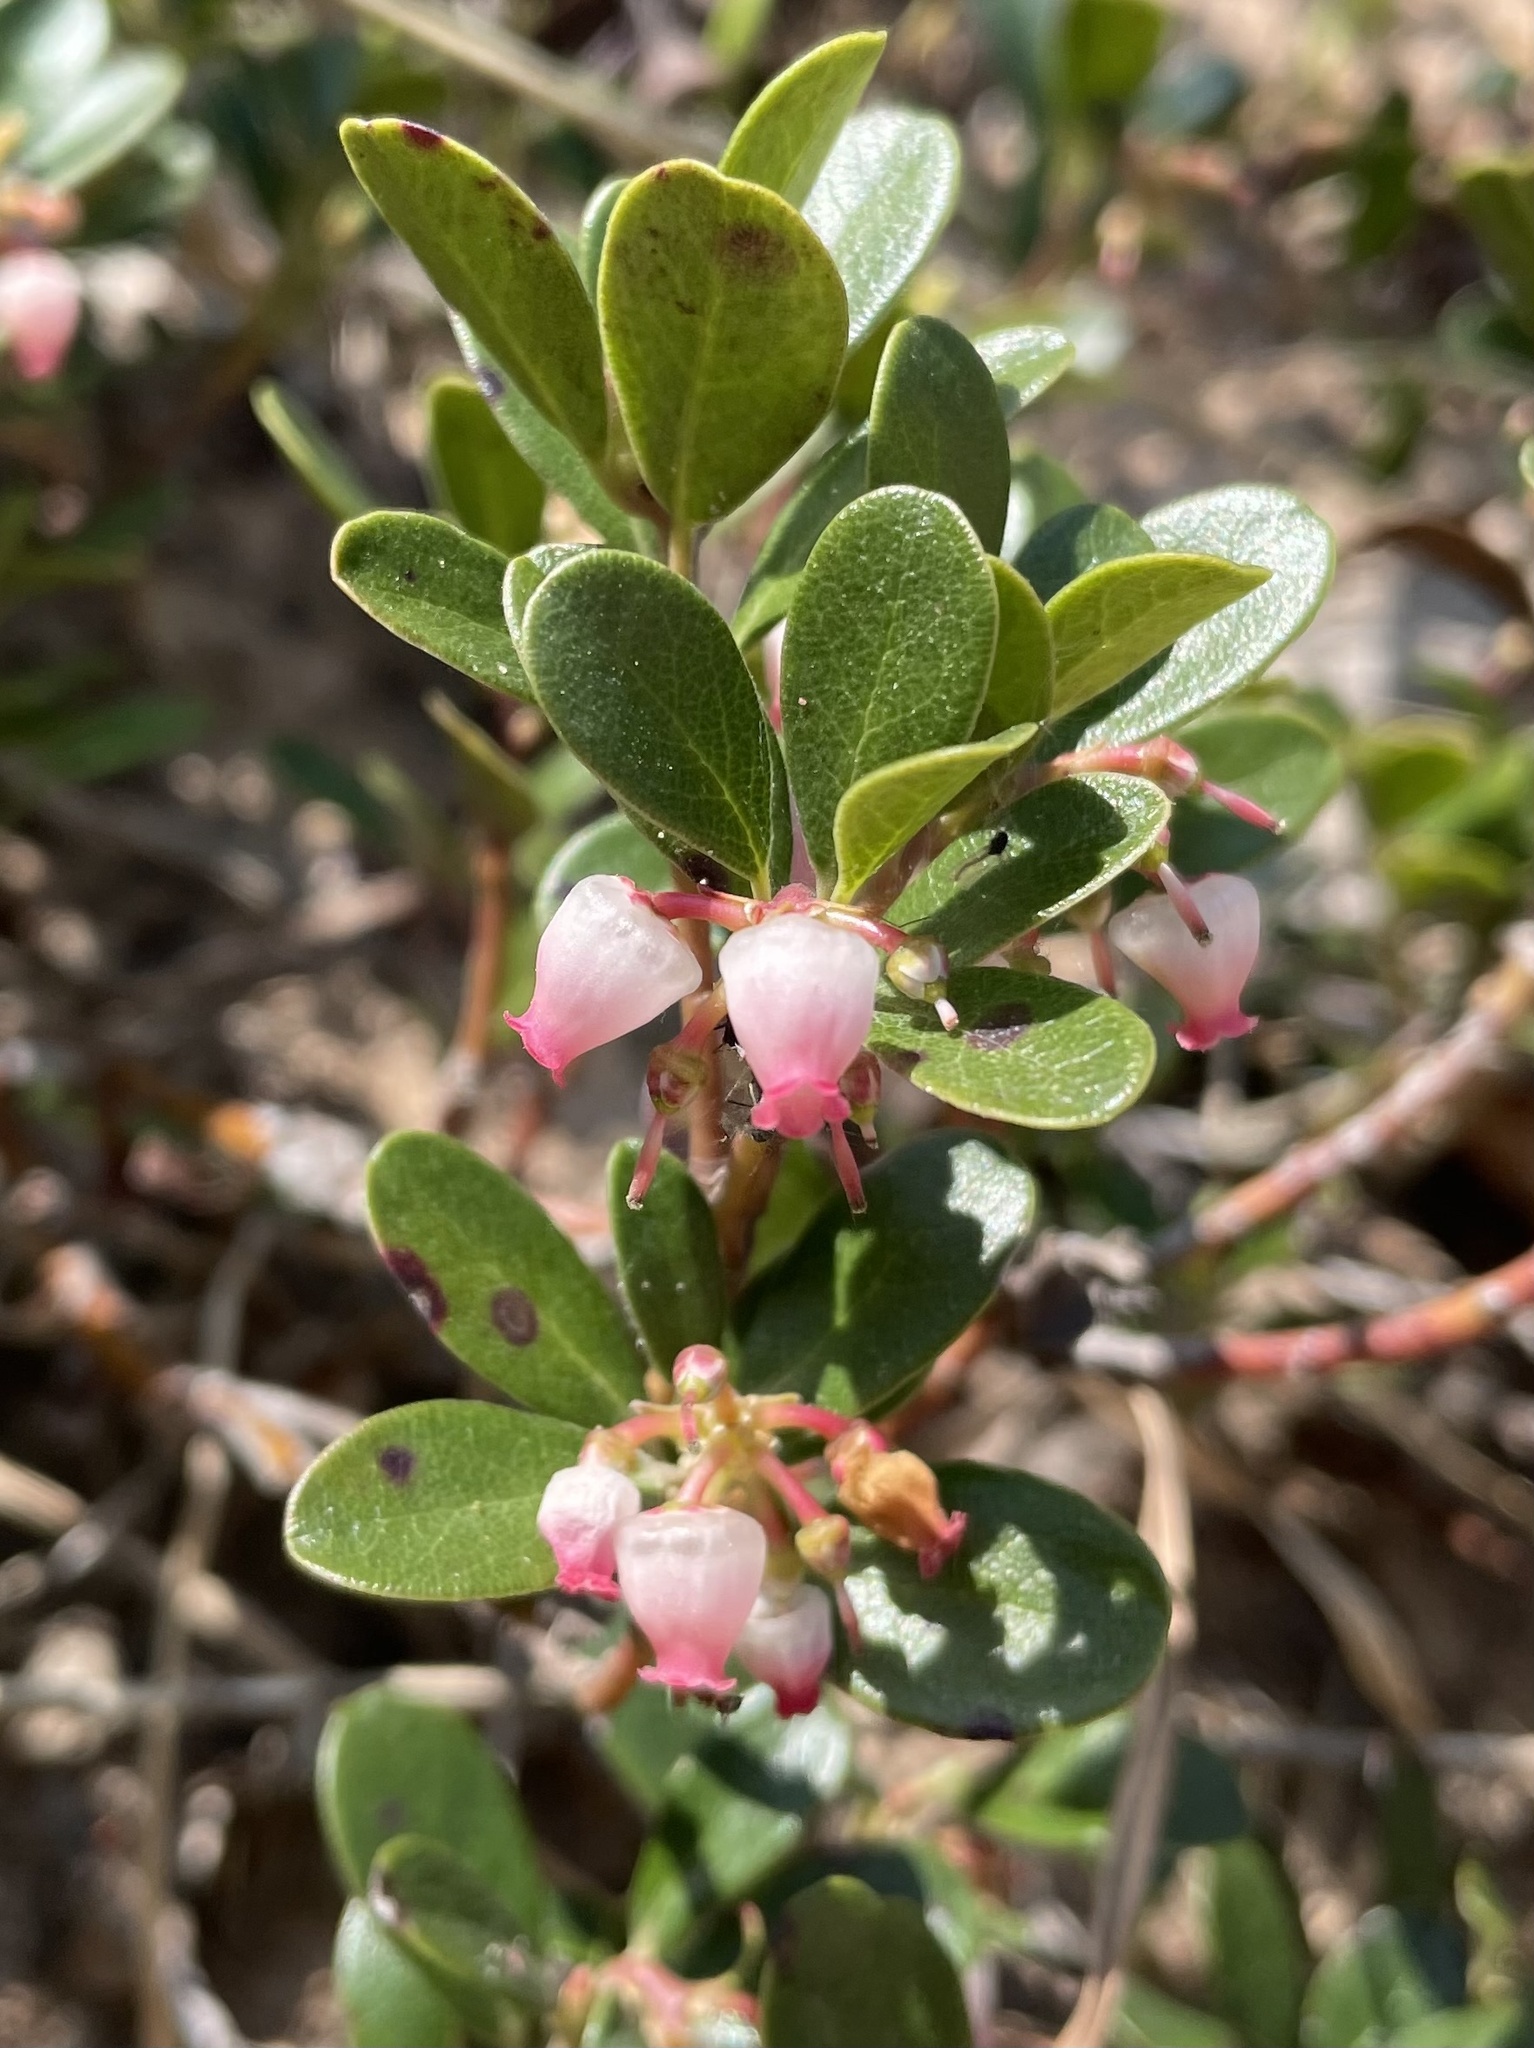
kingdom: Plantae
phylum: Tracheophyta
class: Magnoliopsida
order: Ericales
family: Ericaceae
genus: Arctostaphylos
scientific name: Arctostaphylos uva-ursi
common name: Bearberry
